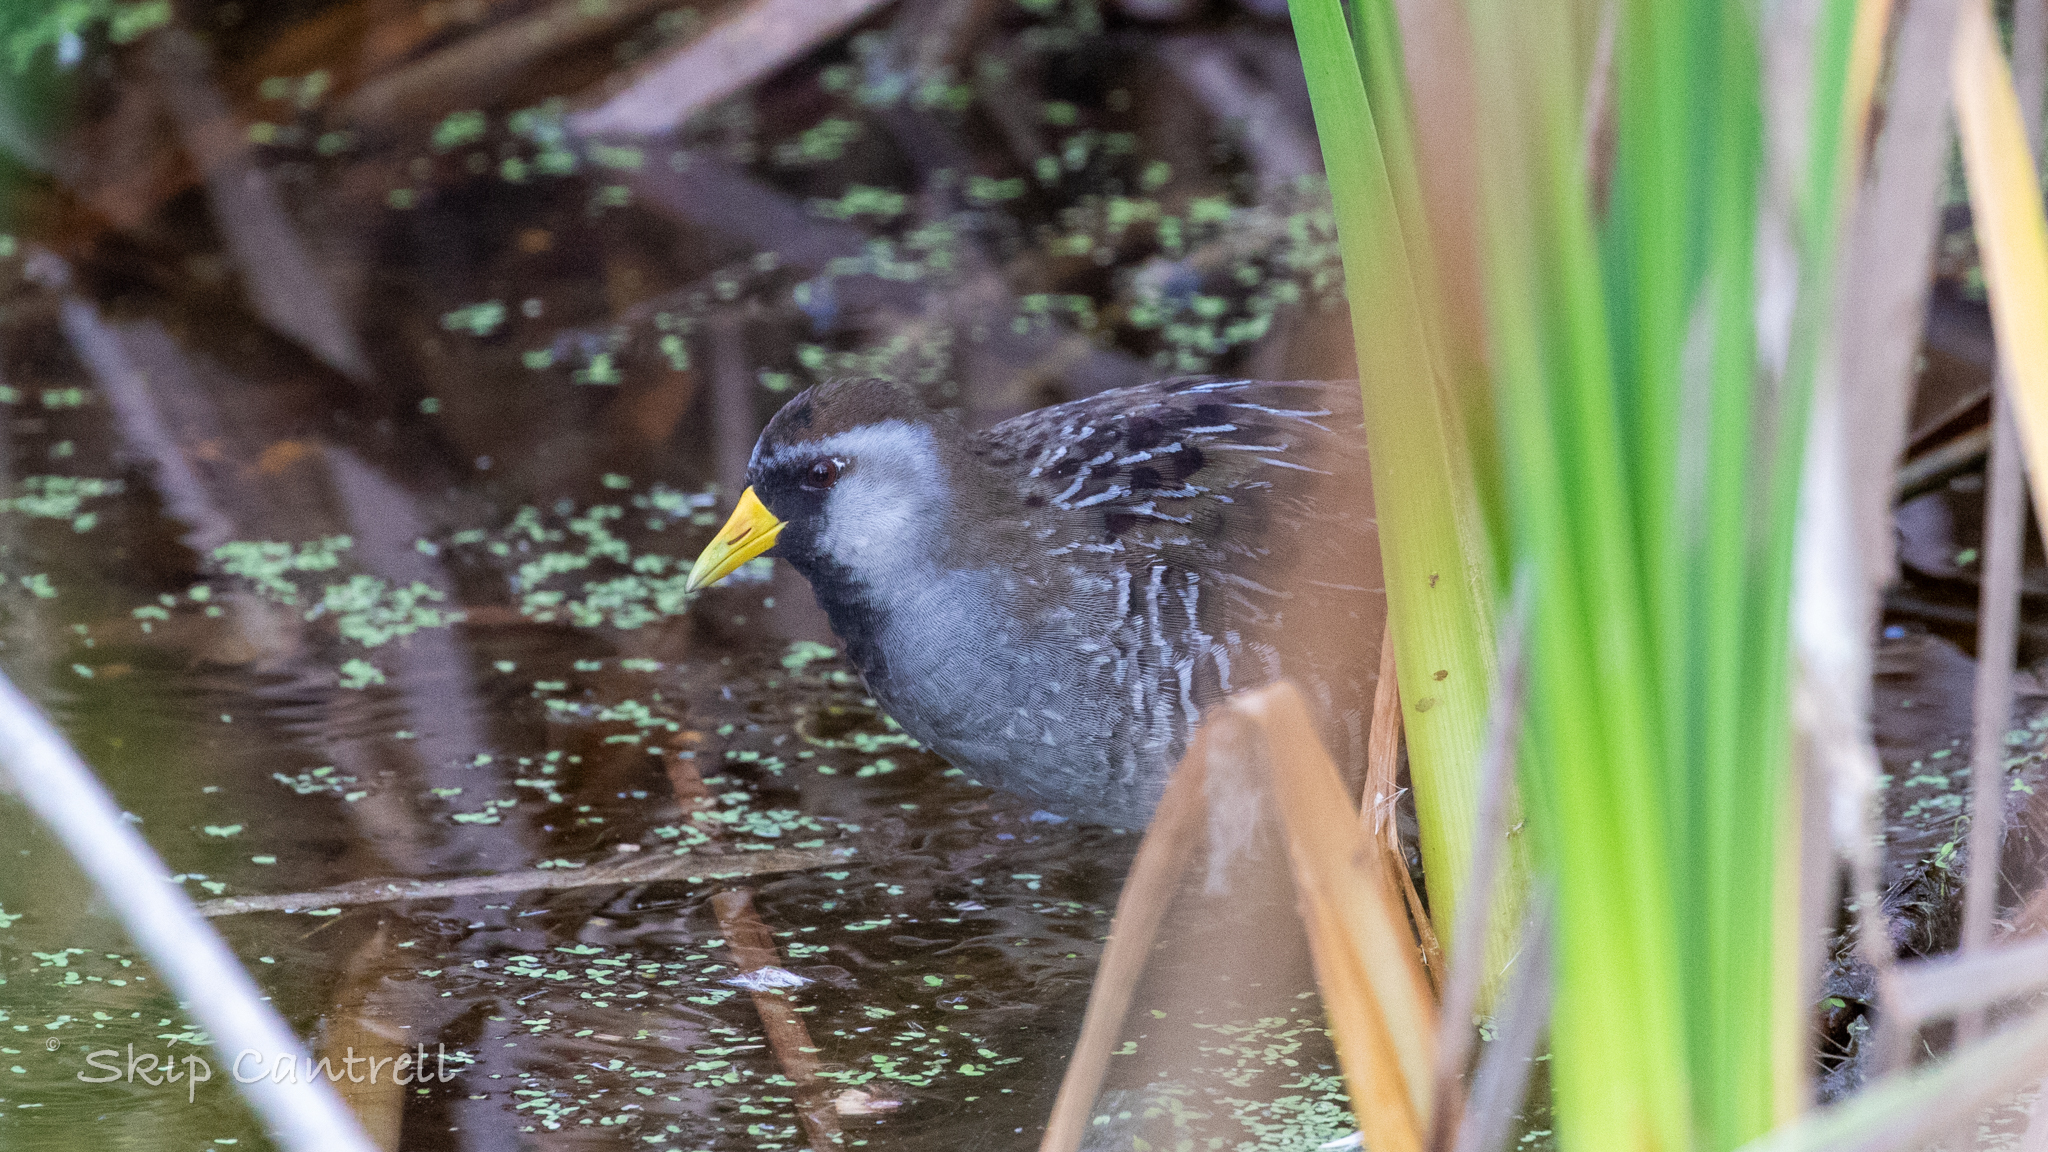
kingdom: Animalia
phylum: Chordata
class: Aves
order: Gruiformes
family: Rallidae
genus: Porzana
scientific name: Porzana carolina
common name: Sora
